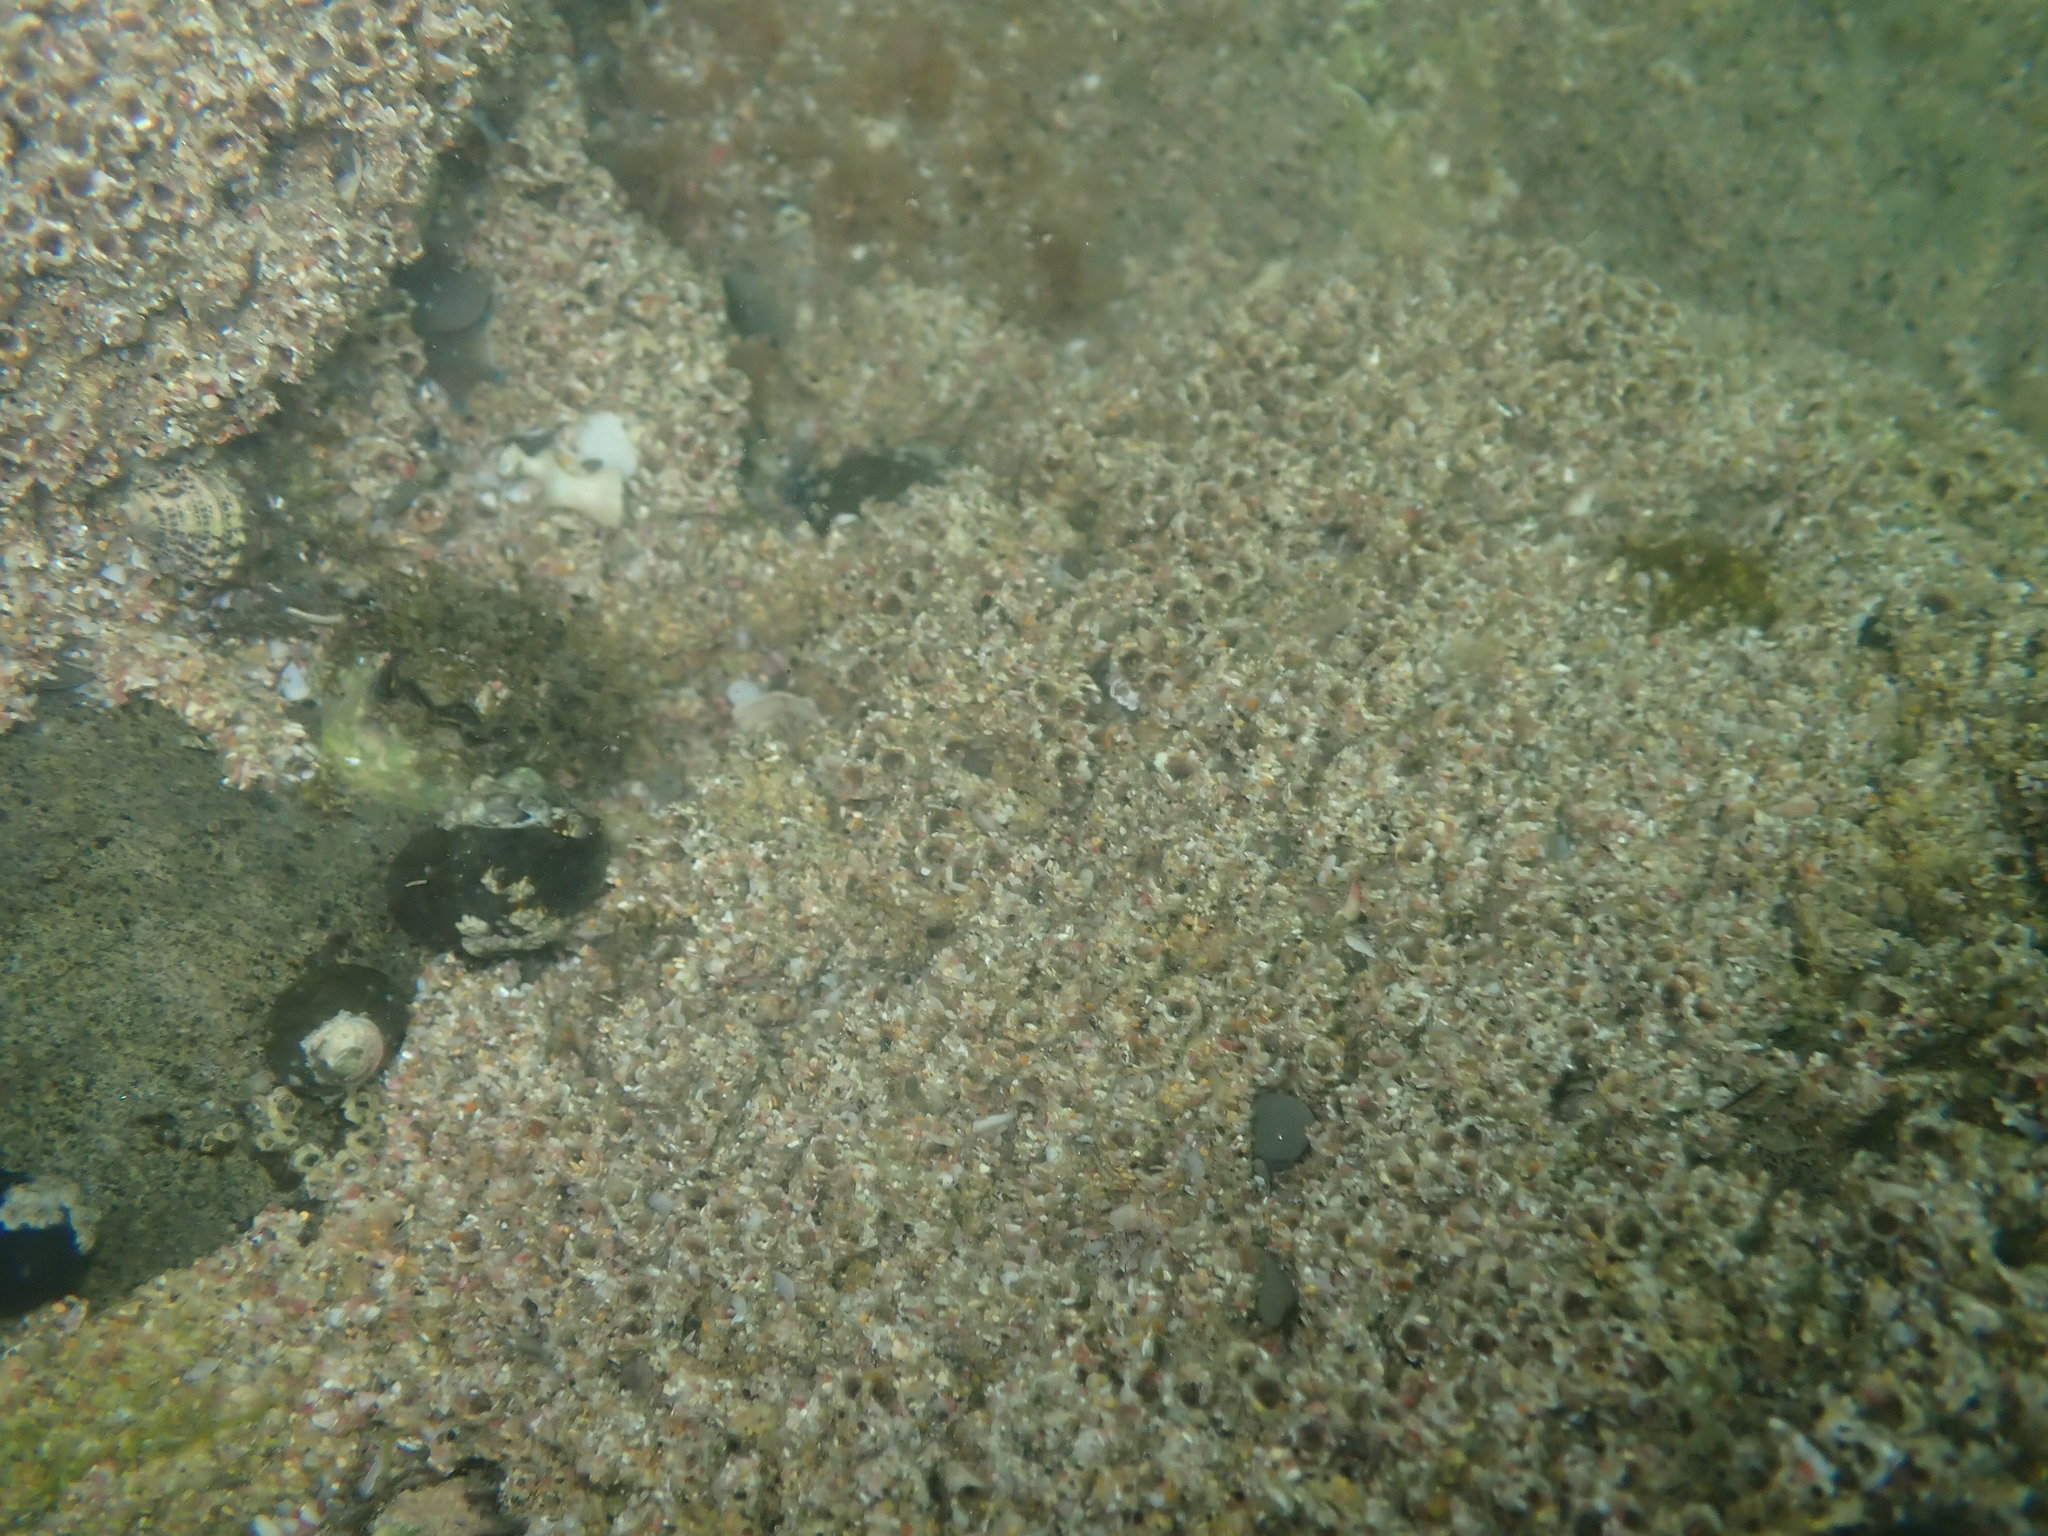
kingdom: Animalia
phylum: Annelida
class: Polychaeta
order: Sabellida
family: Sabellariidae
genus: Neosabellaria
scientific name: Neosabellaria kaiparaensis
